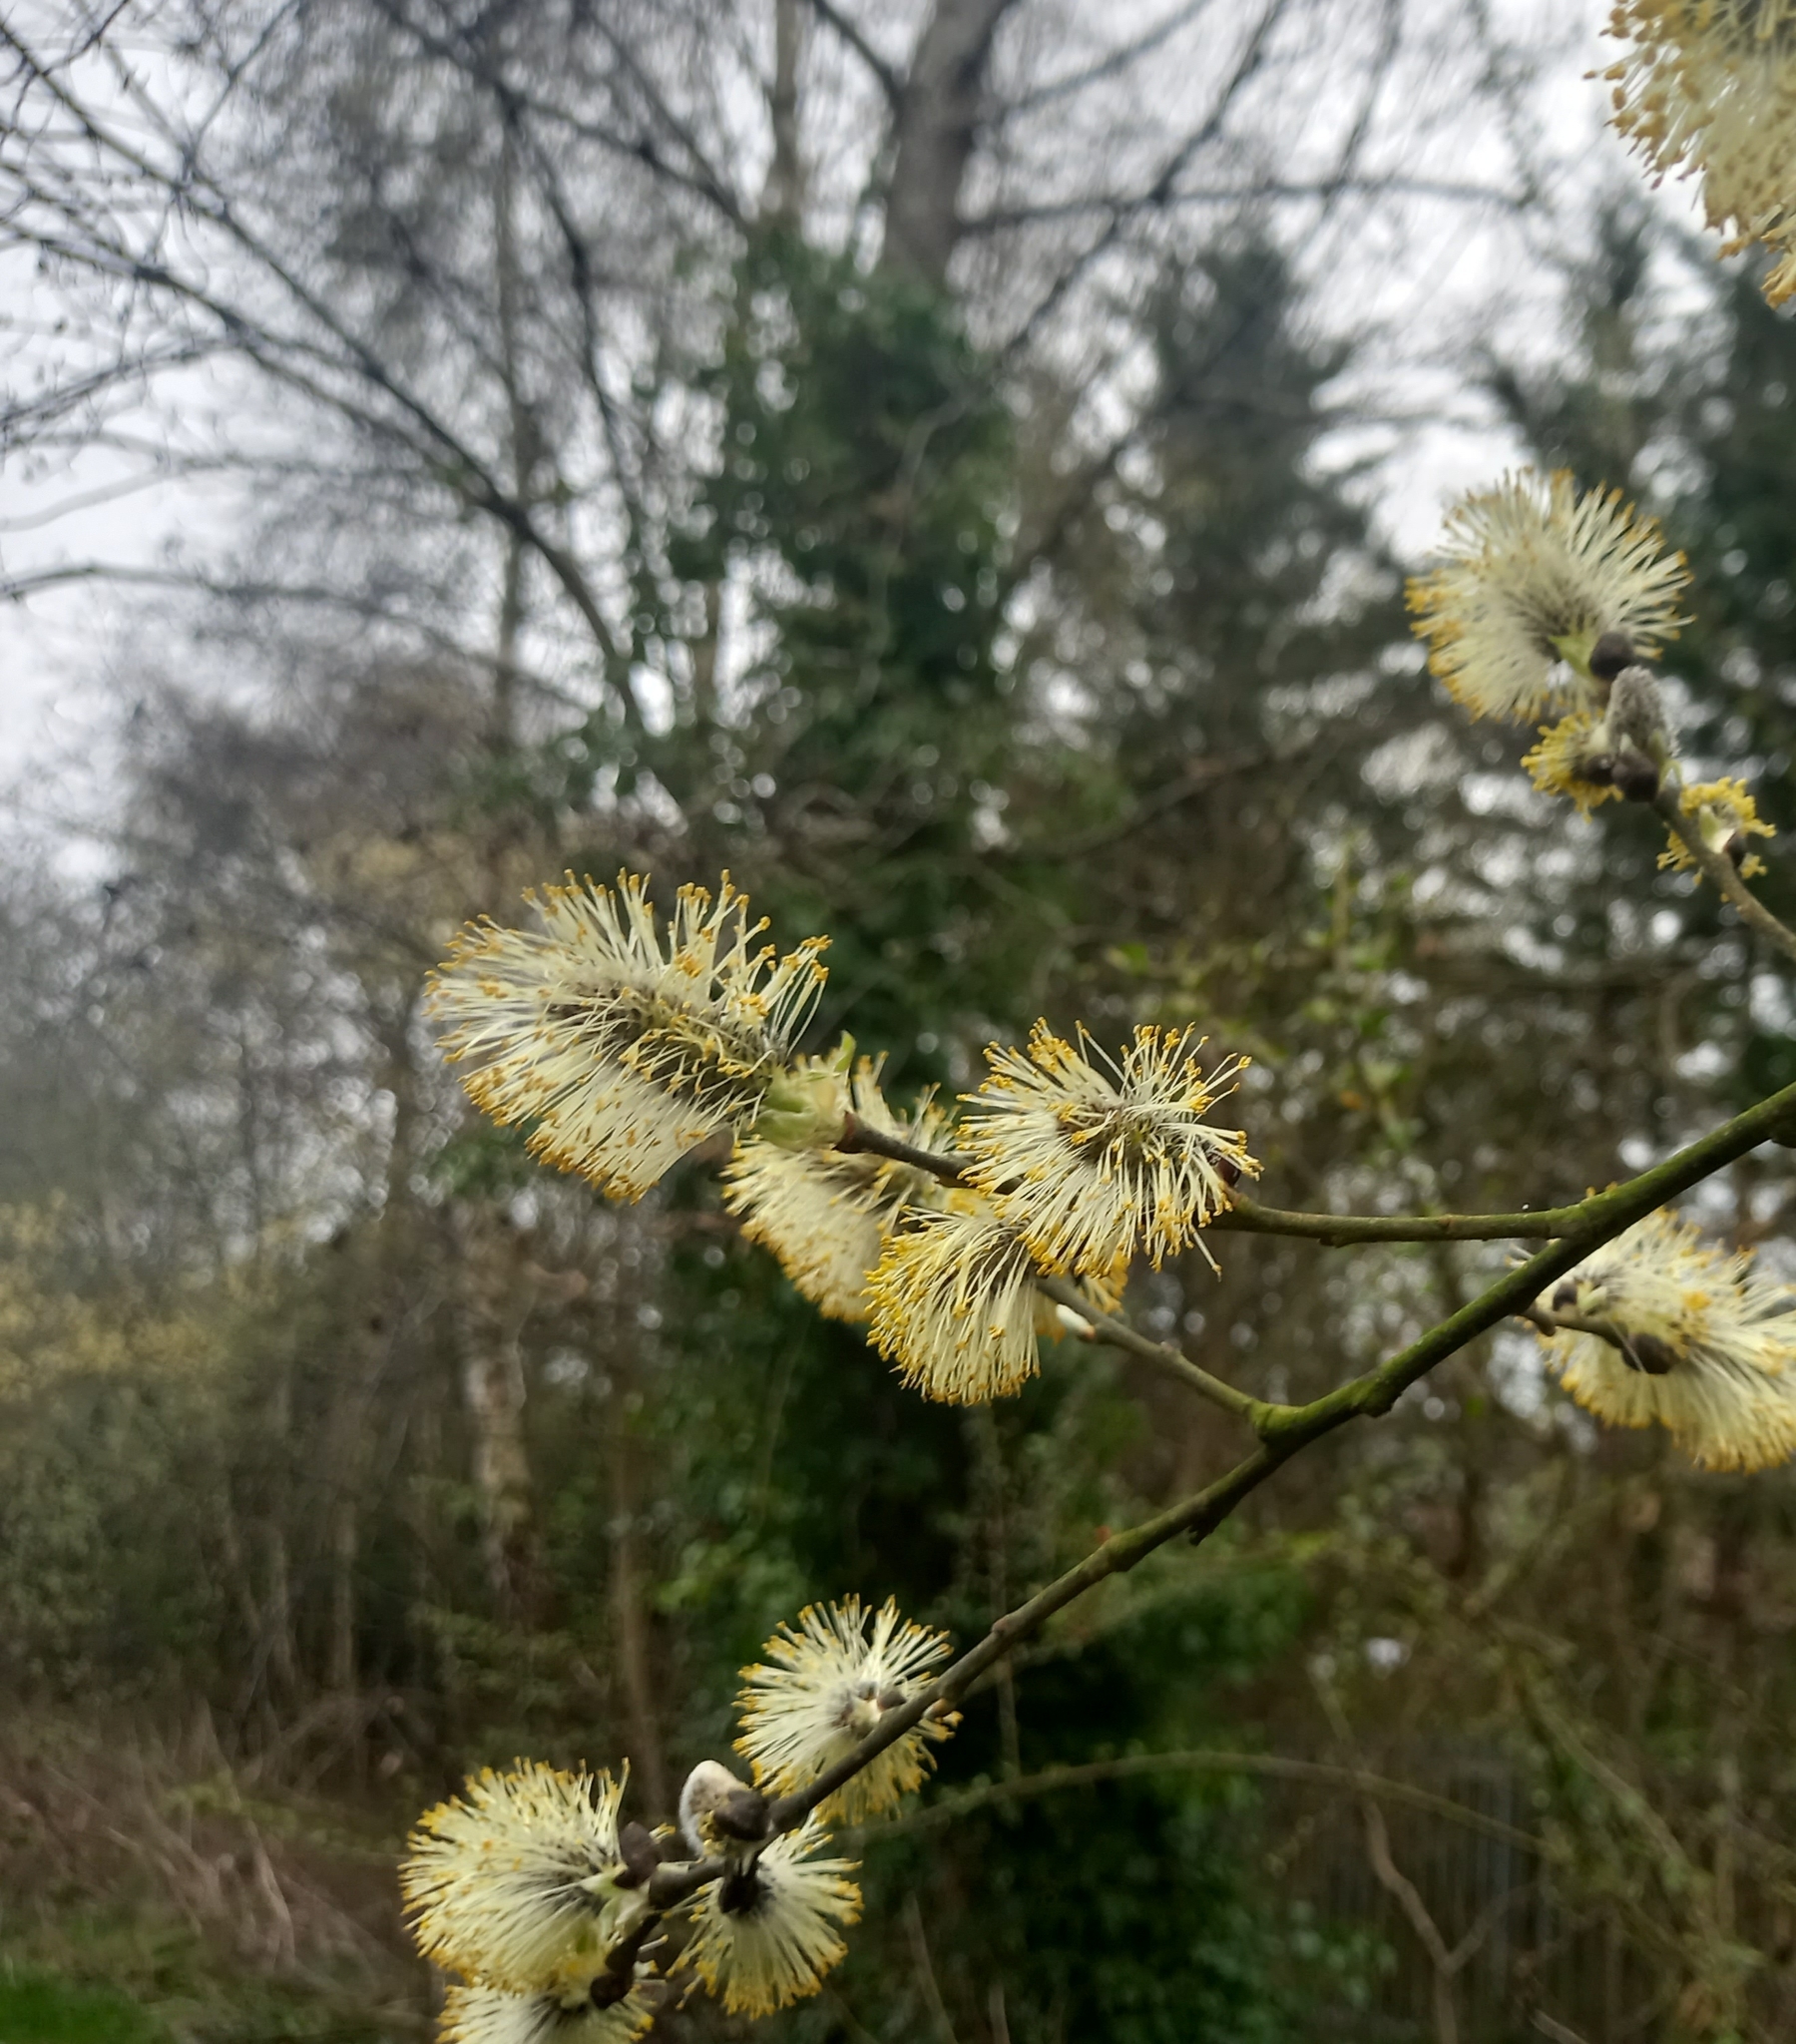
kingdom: Plantae
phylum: Tracheophyta
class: Magnoliopsida
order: Malpighiales
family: Salicaceae
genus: Salix
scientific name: Salix caprea
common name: Goat willow
